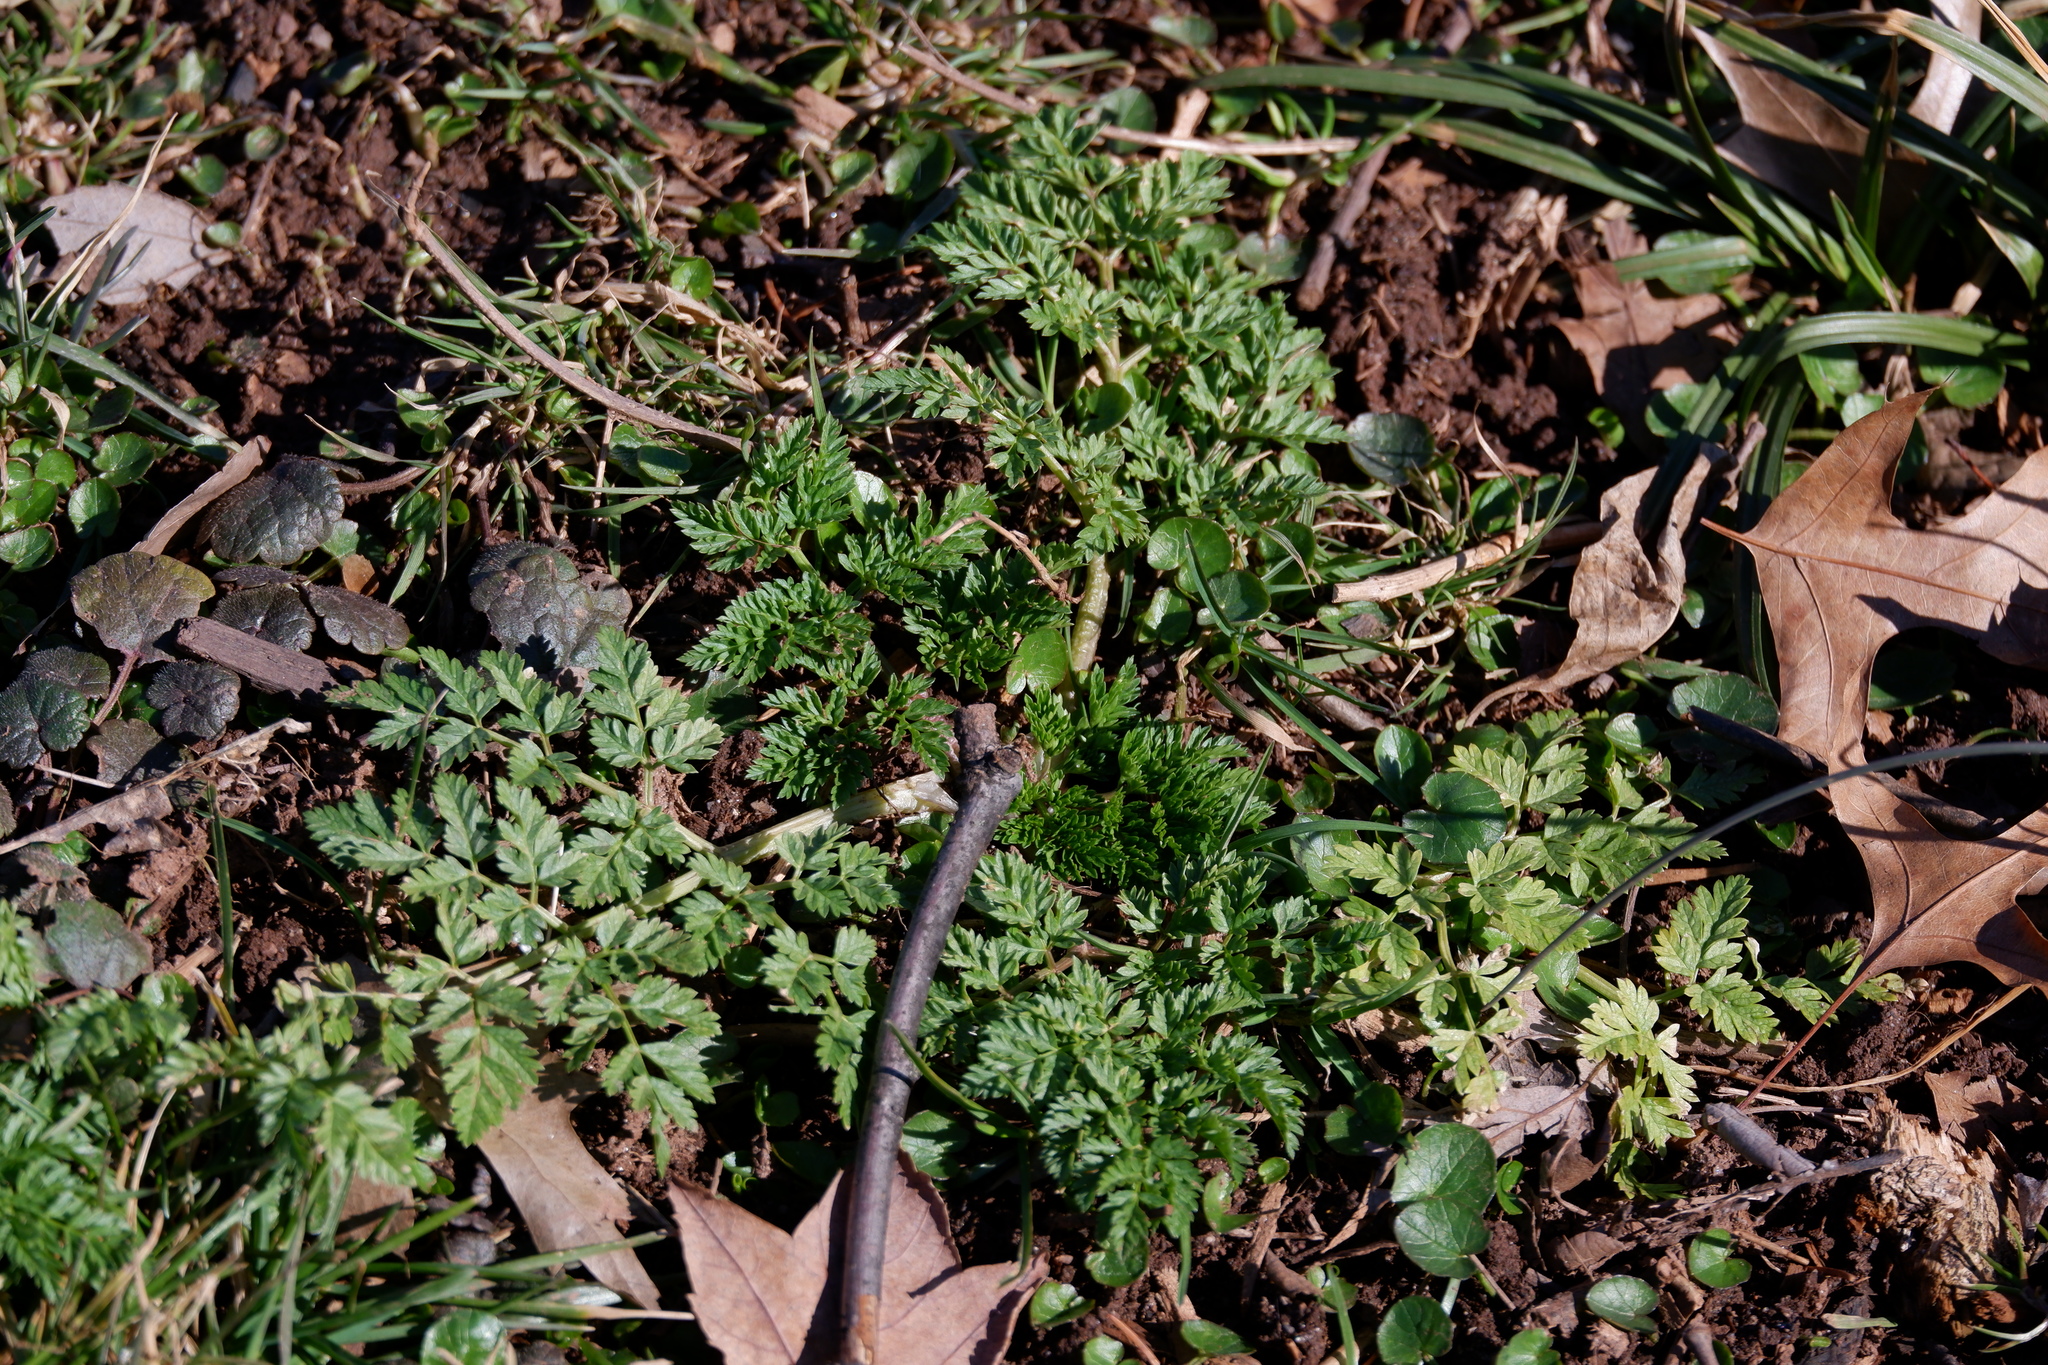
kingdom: Plantae
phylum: Tracheophyta
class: Magnoliopsida
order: Ranunculales
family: Ranunculaceae
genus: Ficaria
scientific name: Ficaria verna
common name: Lesser celandine
